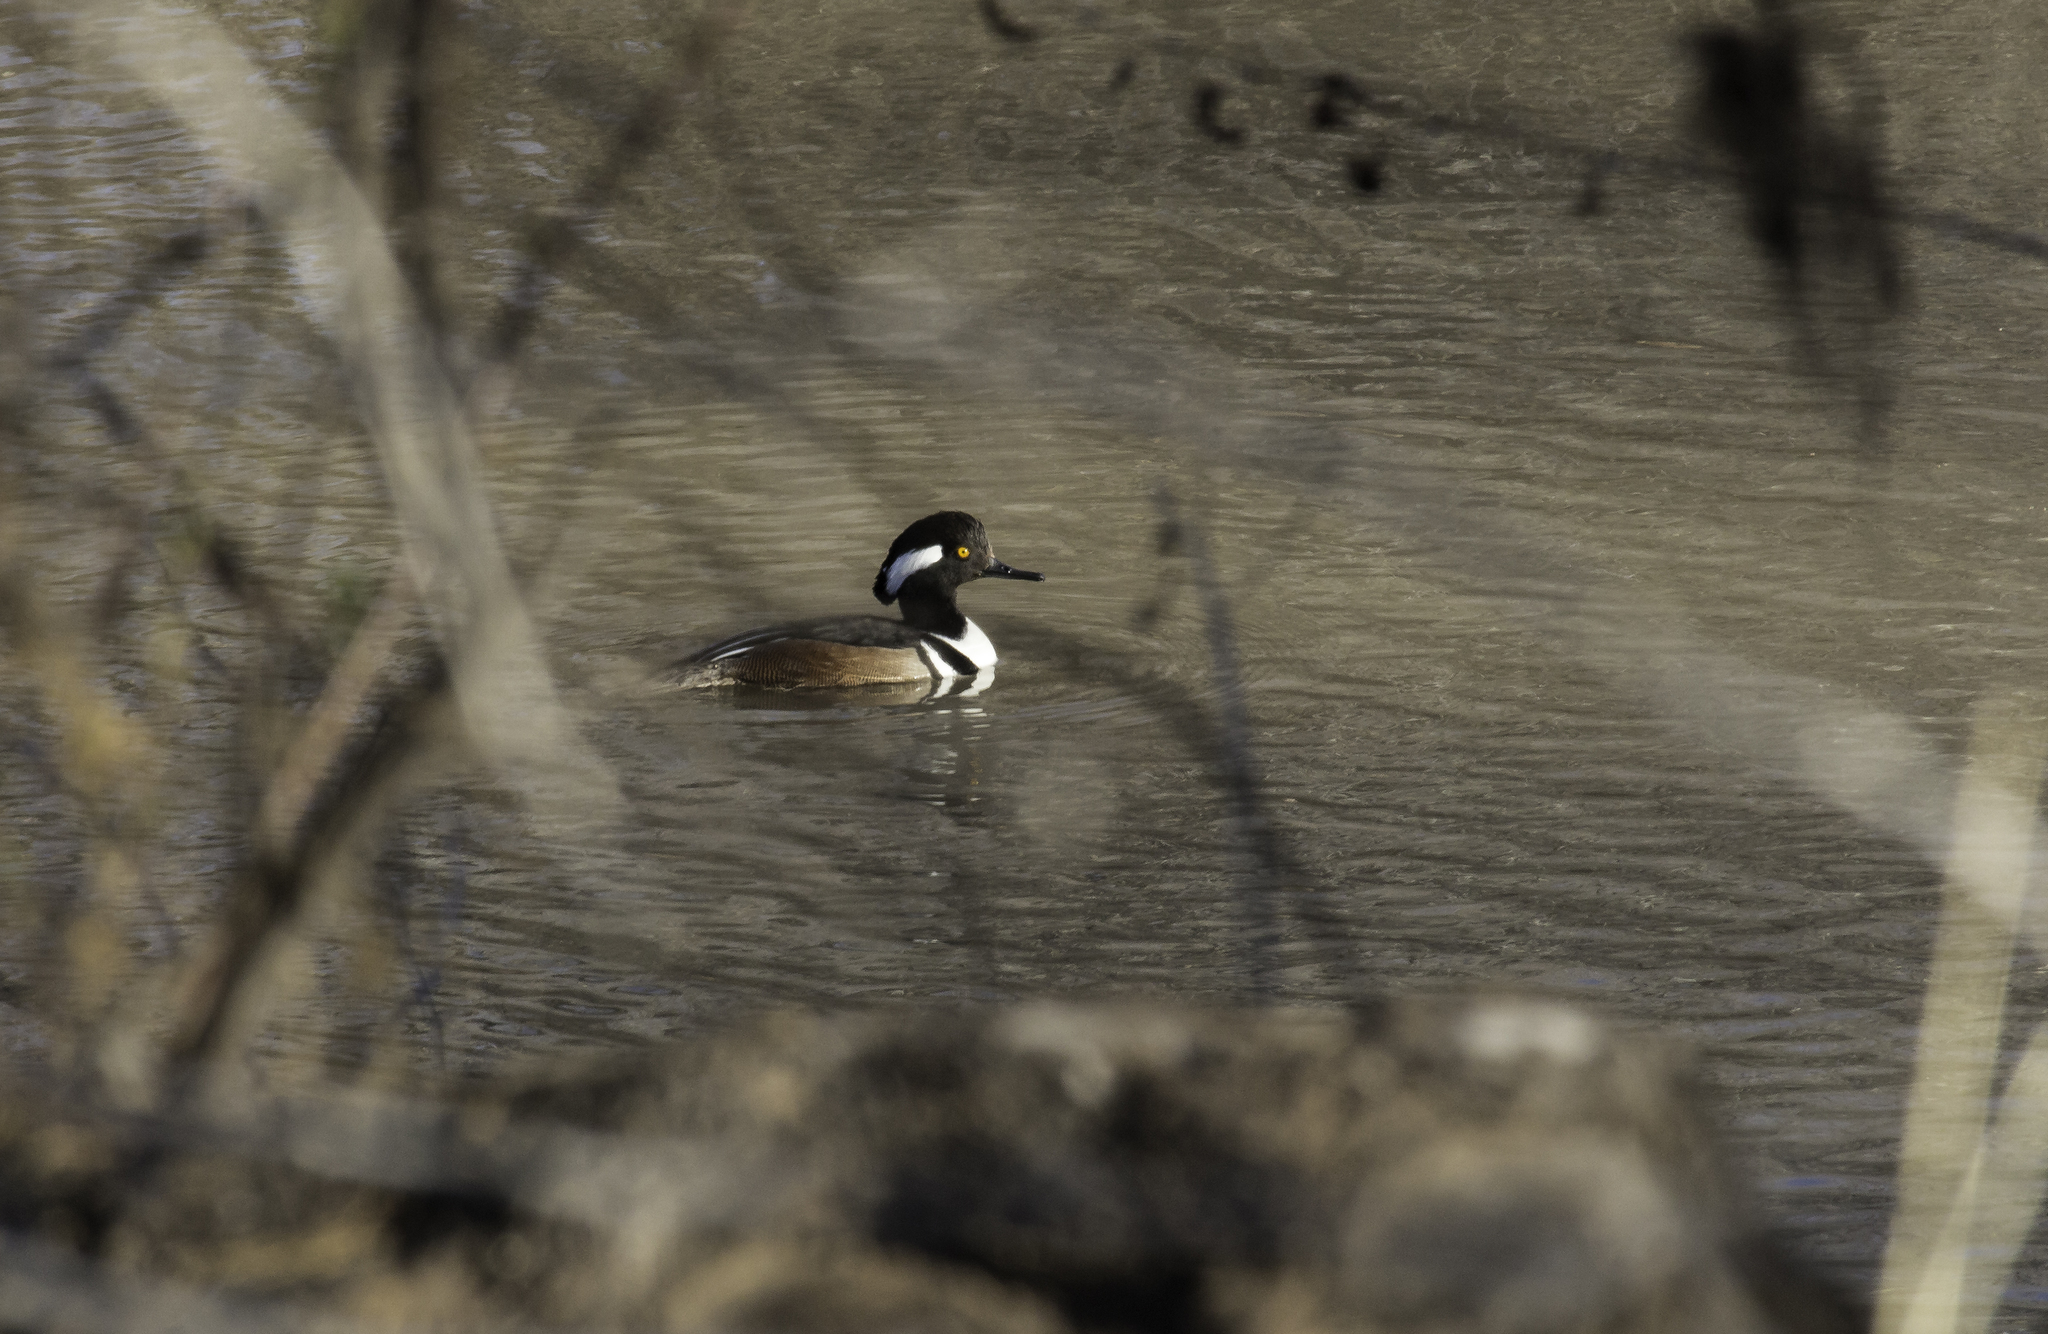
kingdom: Animalia
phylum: Chordata
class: Aves
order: Anseriformes
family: Anatidae
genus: Lophodytes
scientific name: Lophodytes cucullatus
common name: Hooded merganser
